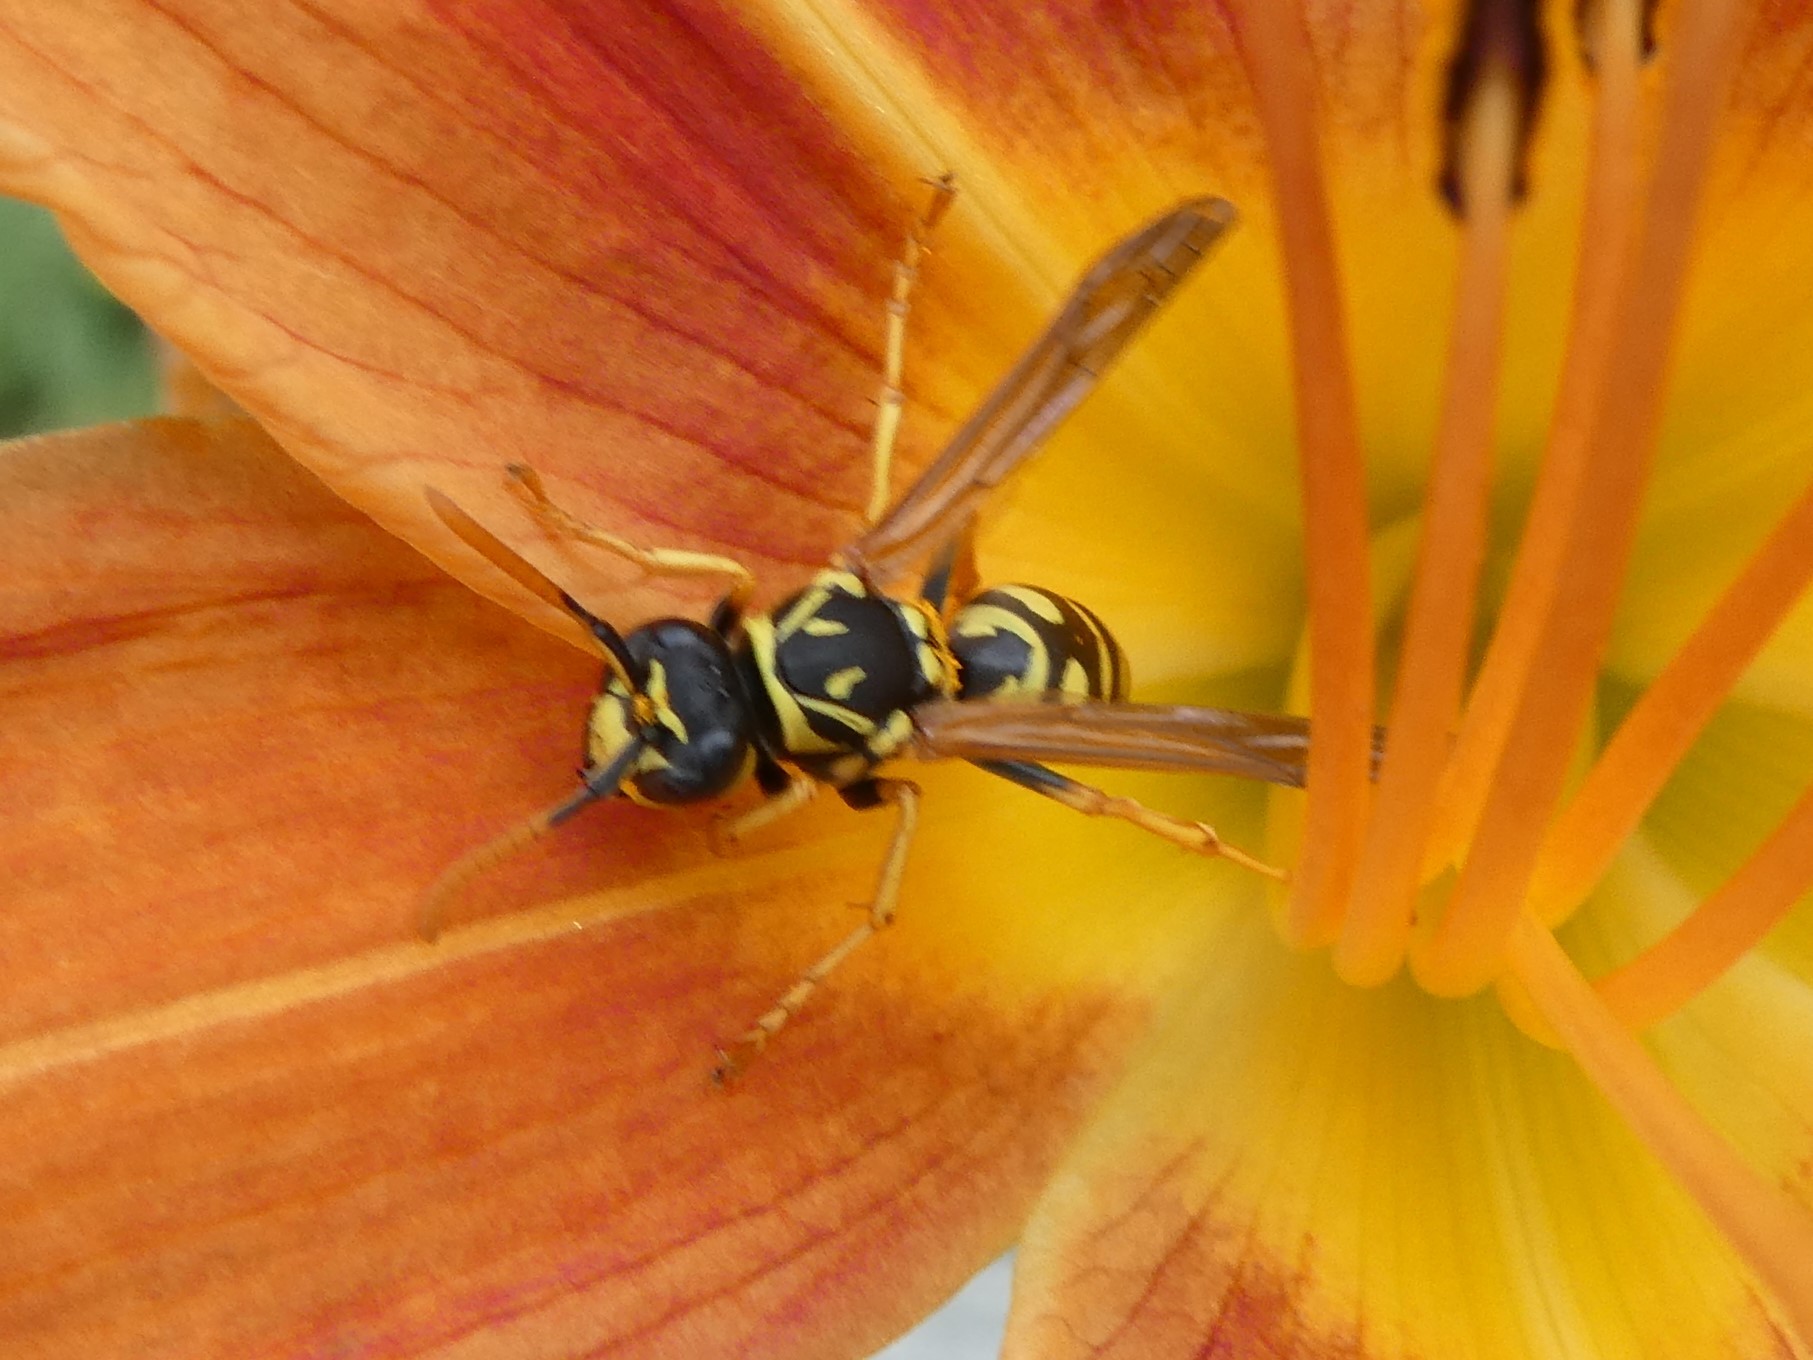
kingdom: Animalia
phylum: Arthropoda
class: Insecta
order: Hymenoptera
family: Eumenidae
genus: Polistes
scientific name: Polistes dominula
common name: Paper wasp
